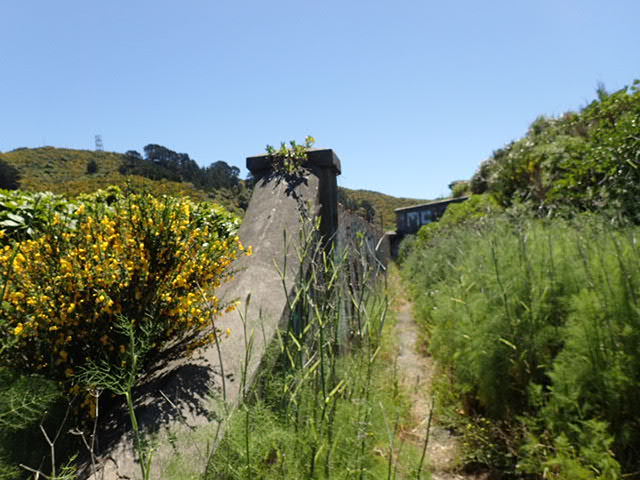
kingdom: Plantae
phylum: Tracheophyta
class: Magnoliopsida
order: Apiales
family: Apiaceae
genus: Foeniculum
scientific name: Foeniculum vulgare
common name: Fennel
